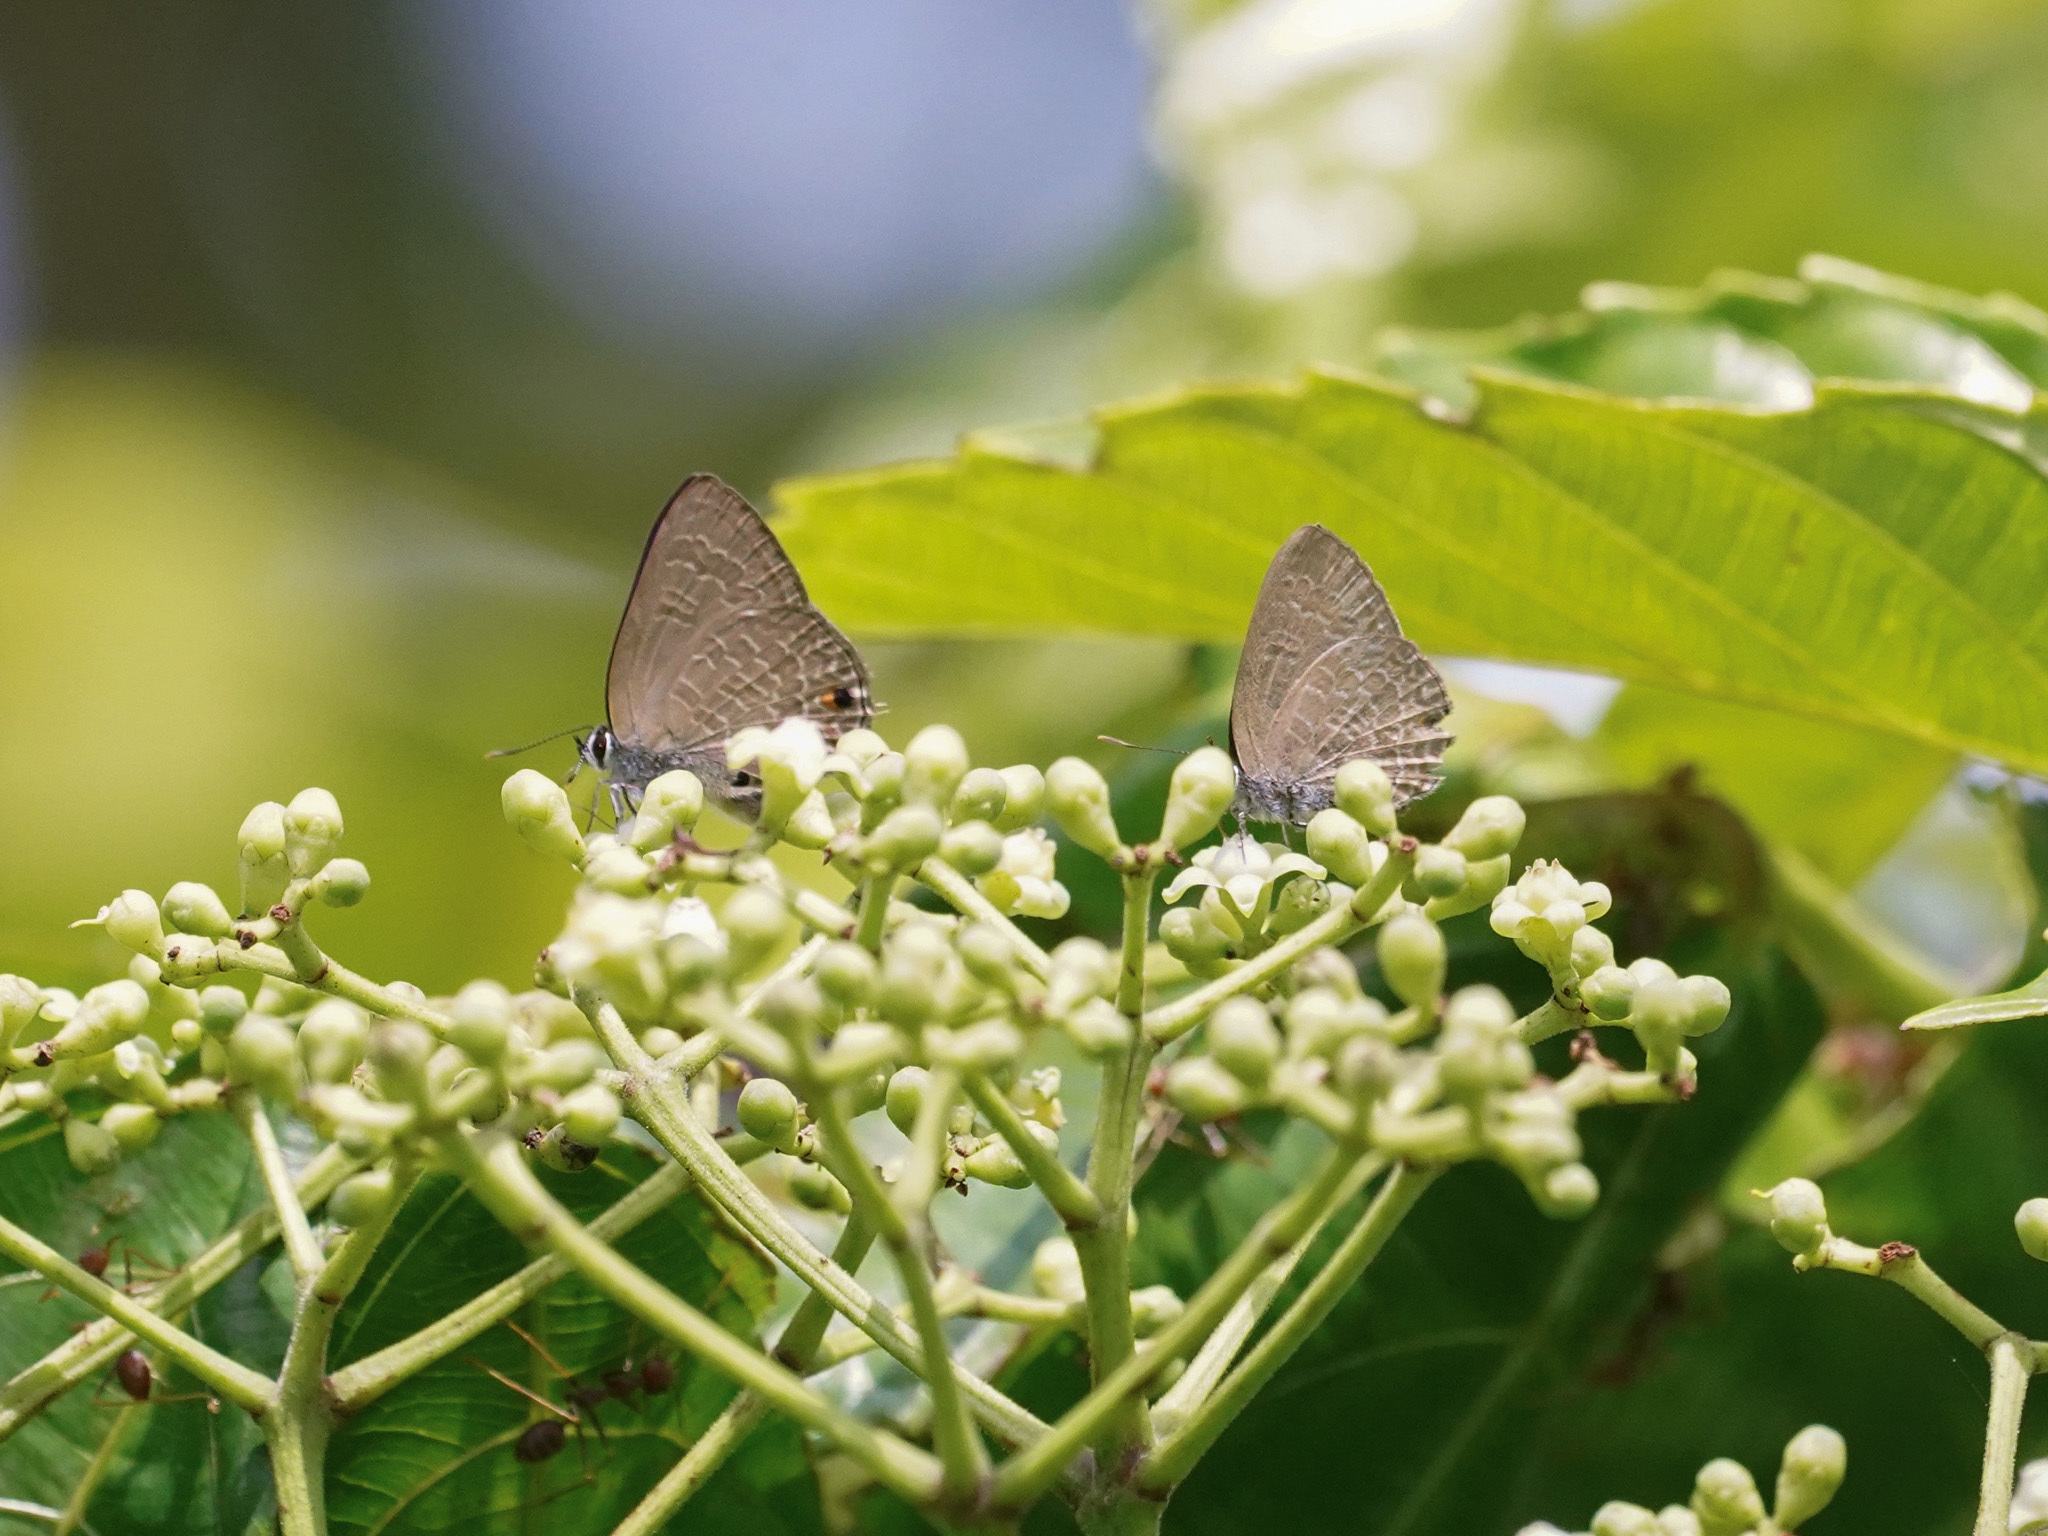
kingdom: Animalia
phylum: Arthropoda
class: Insecta
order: Lepidoptera
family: Lycaenidae
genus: Anthene
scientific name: Anthene emolus
